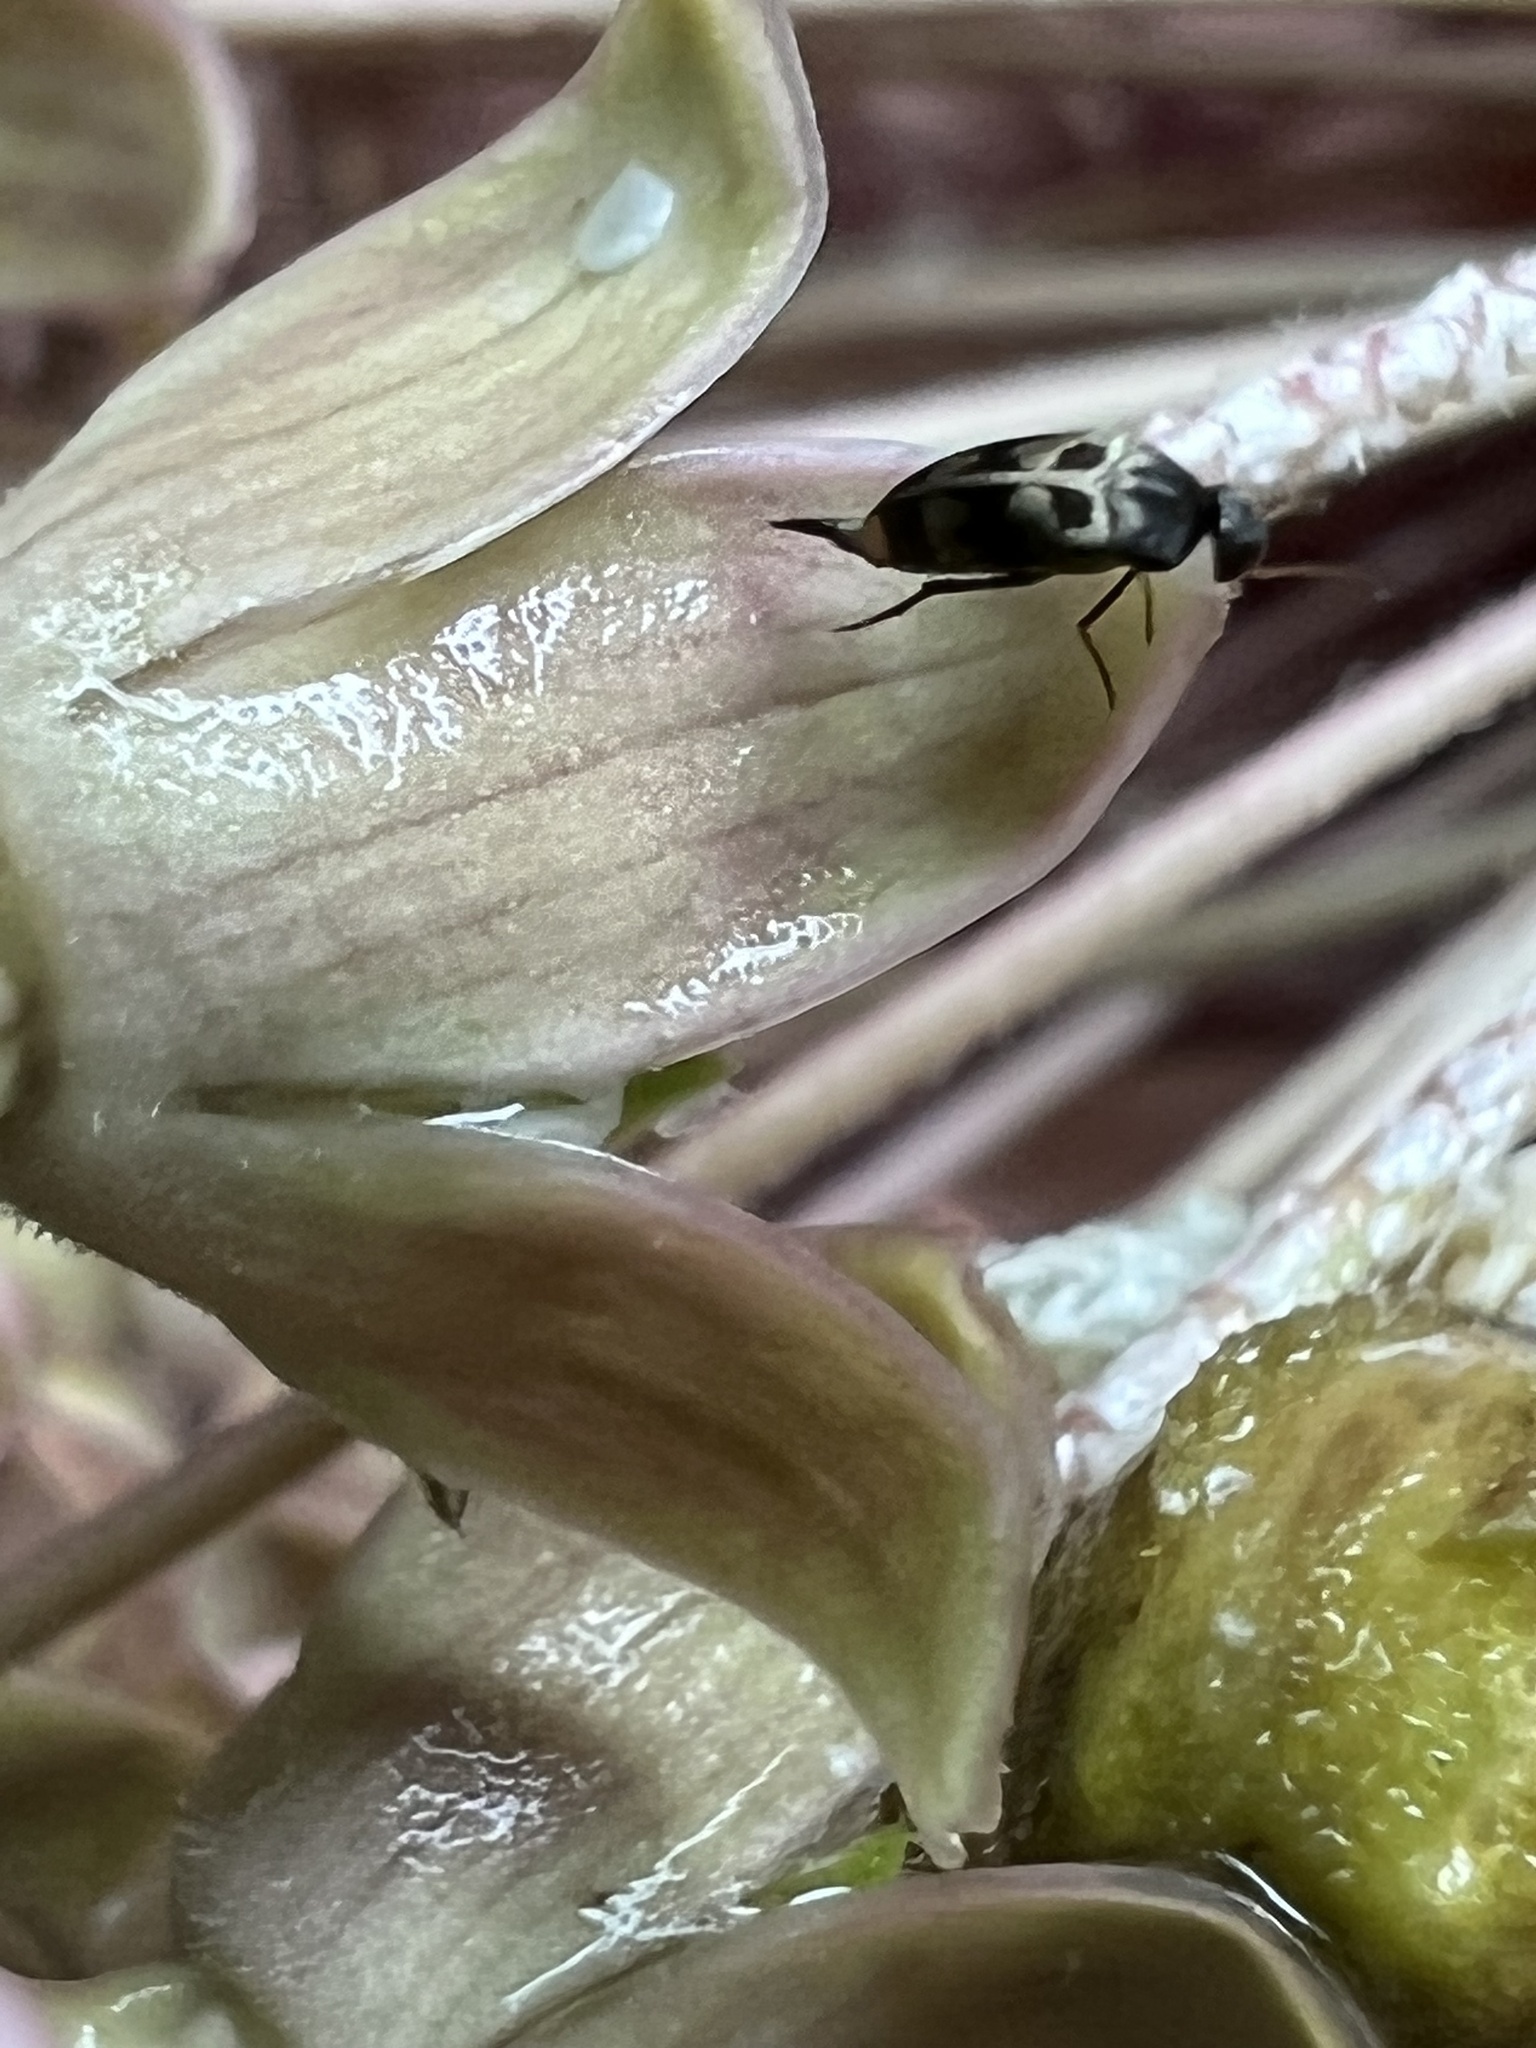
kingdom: Animalia
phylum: Arthropoda
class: Insecta
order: Coleoptera
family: Mordellidae
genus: Falsomordellistena
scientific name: Falsomordellistena pubescens
